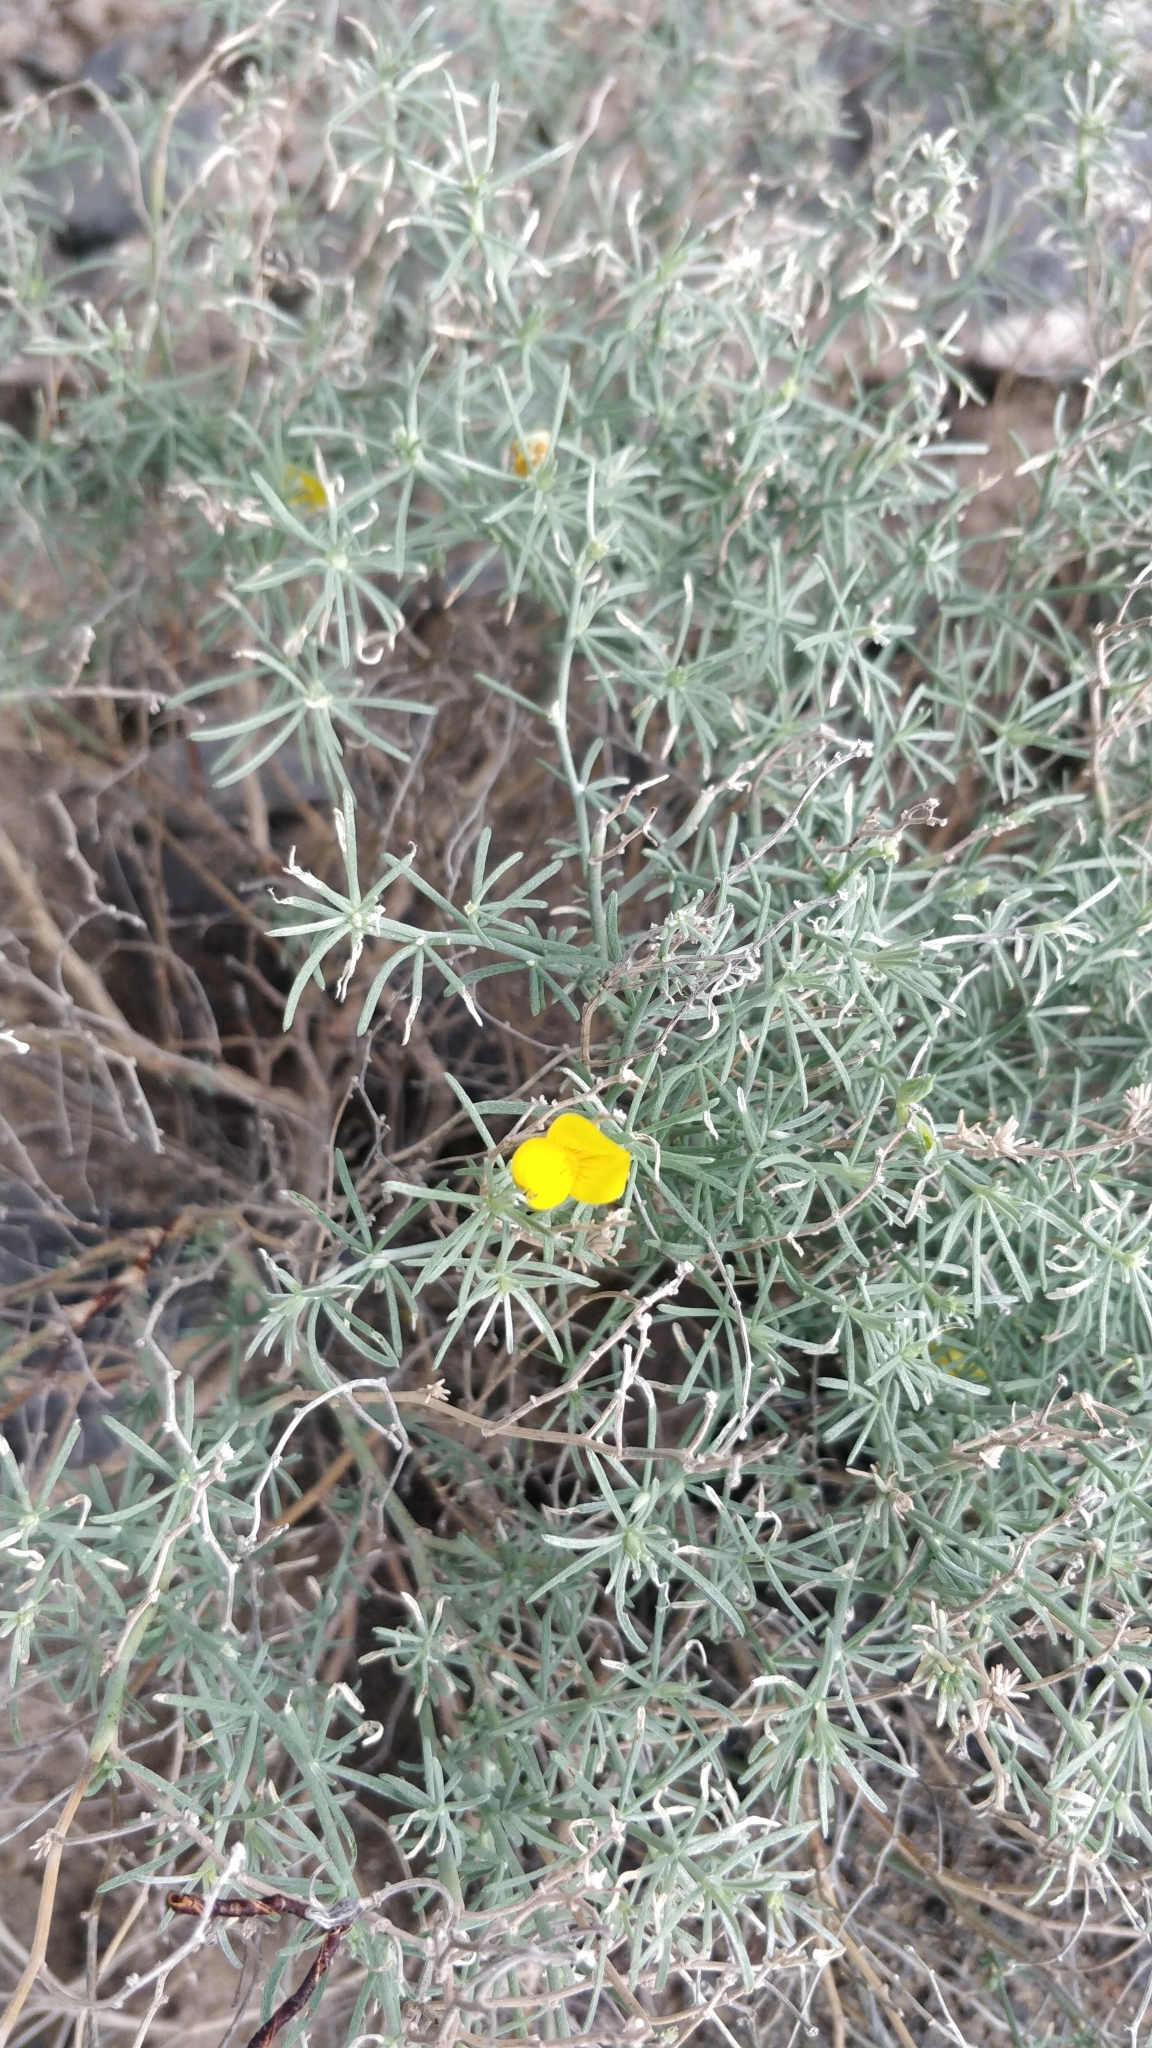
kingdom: Plantae
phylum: Tracheophyta
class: Magnoliopsida
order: Fabales
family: Fabaceae
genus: Lotus
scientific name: Lotus mascaensis
